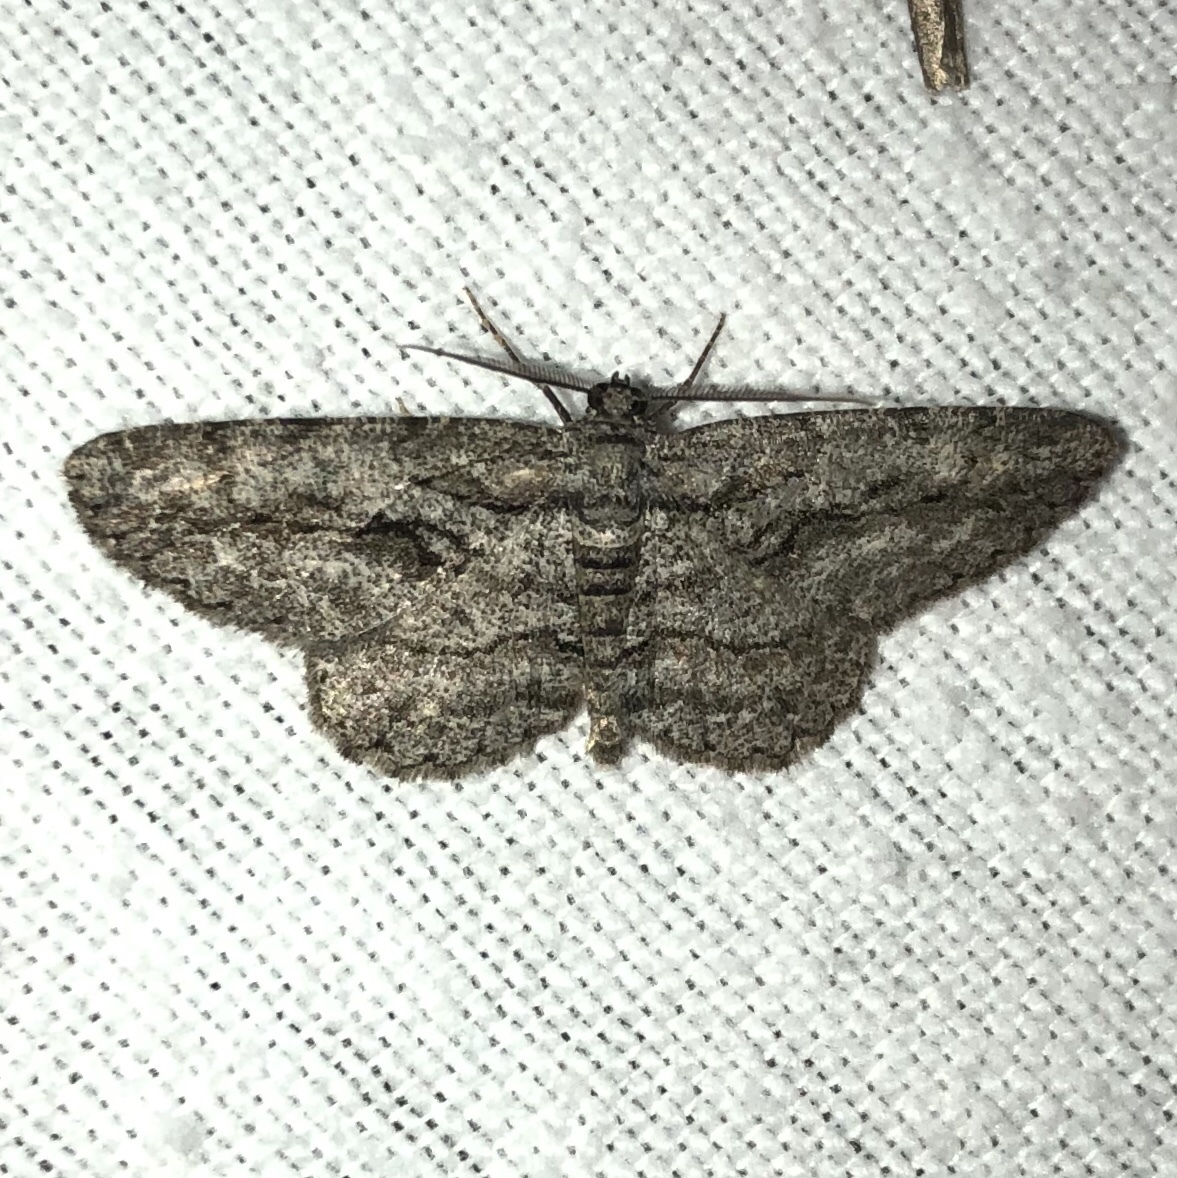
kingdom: Animalia
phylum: Arthropoda
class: Insecta
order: Lepidoptera
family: Geometridae
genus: Anavitrinella
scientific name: Anavitrinella pampinaria
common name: Common gray
